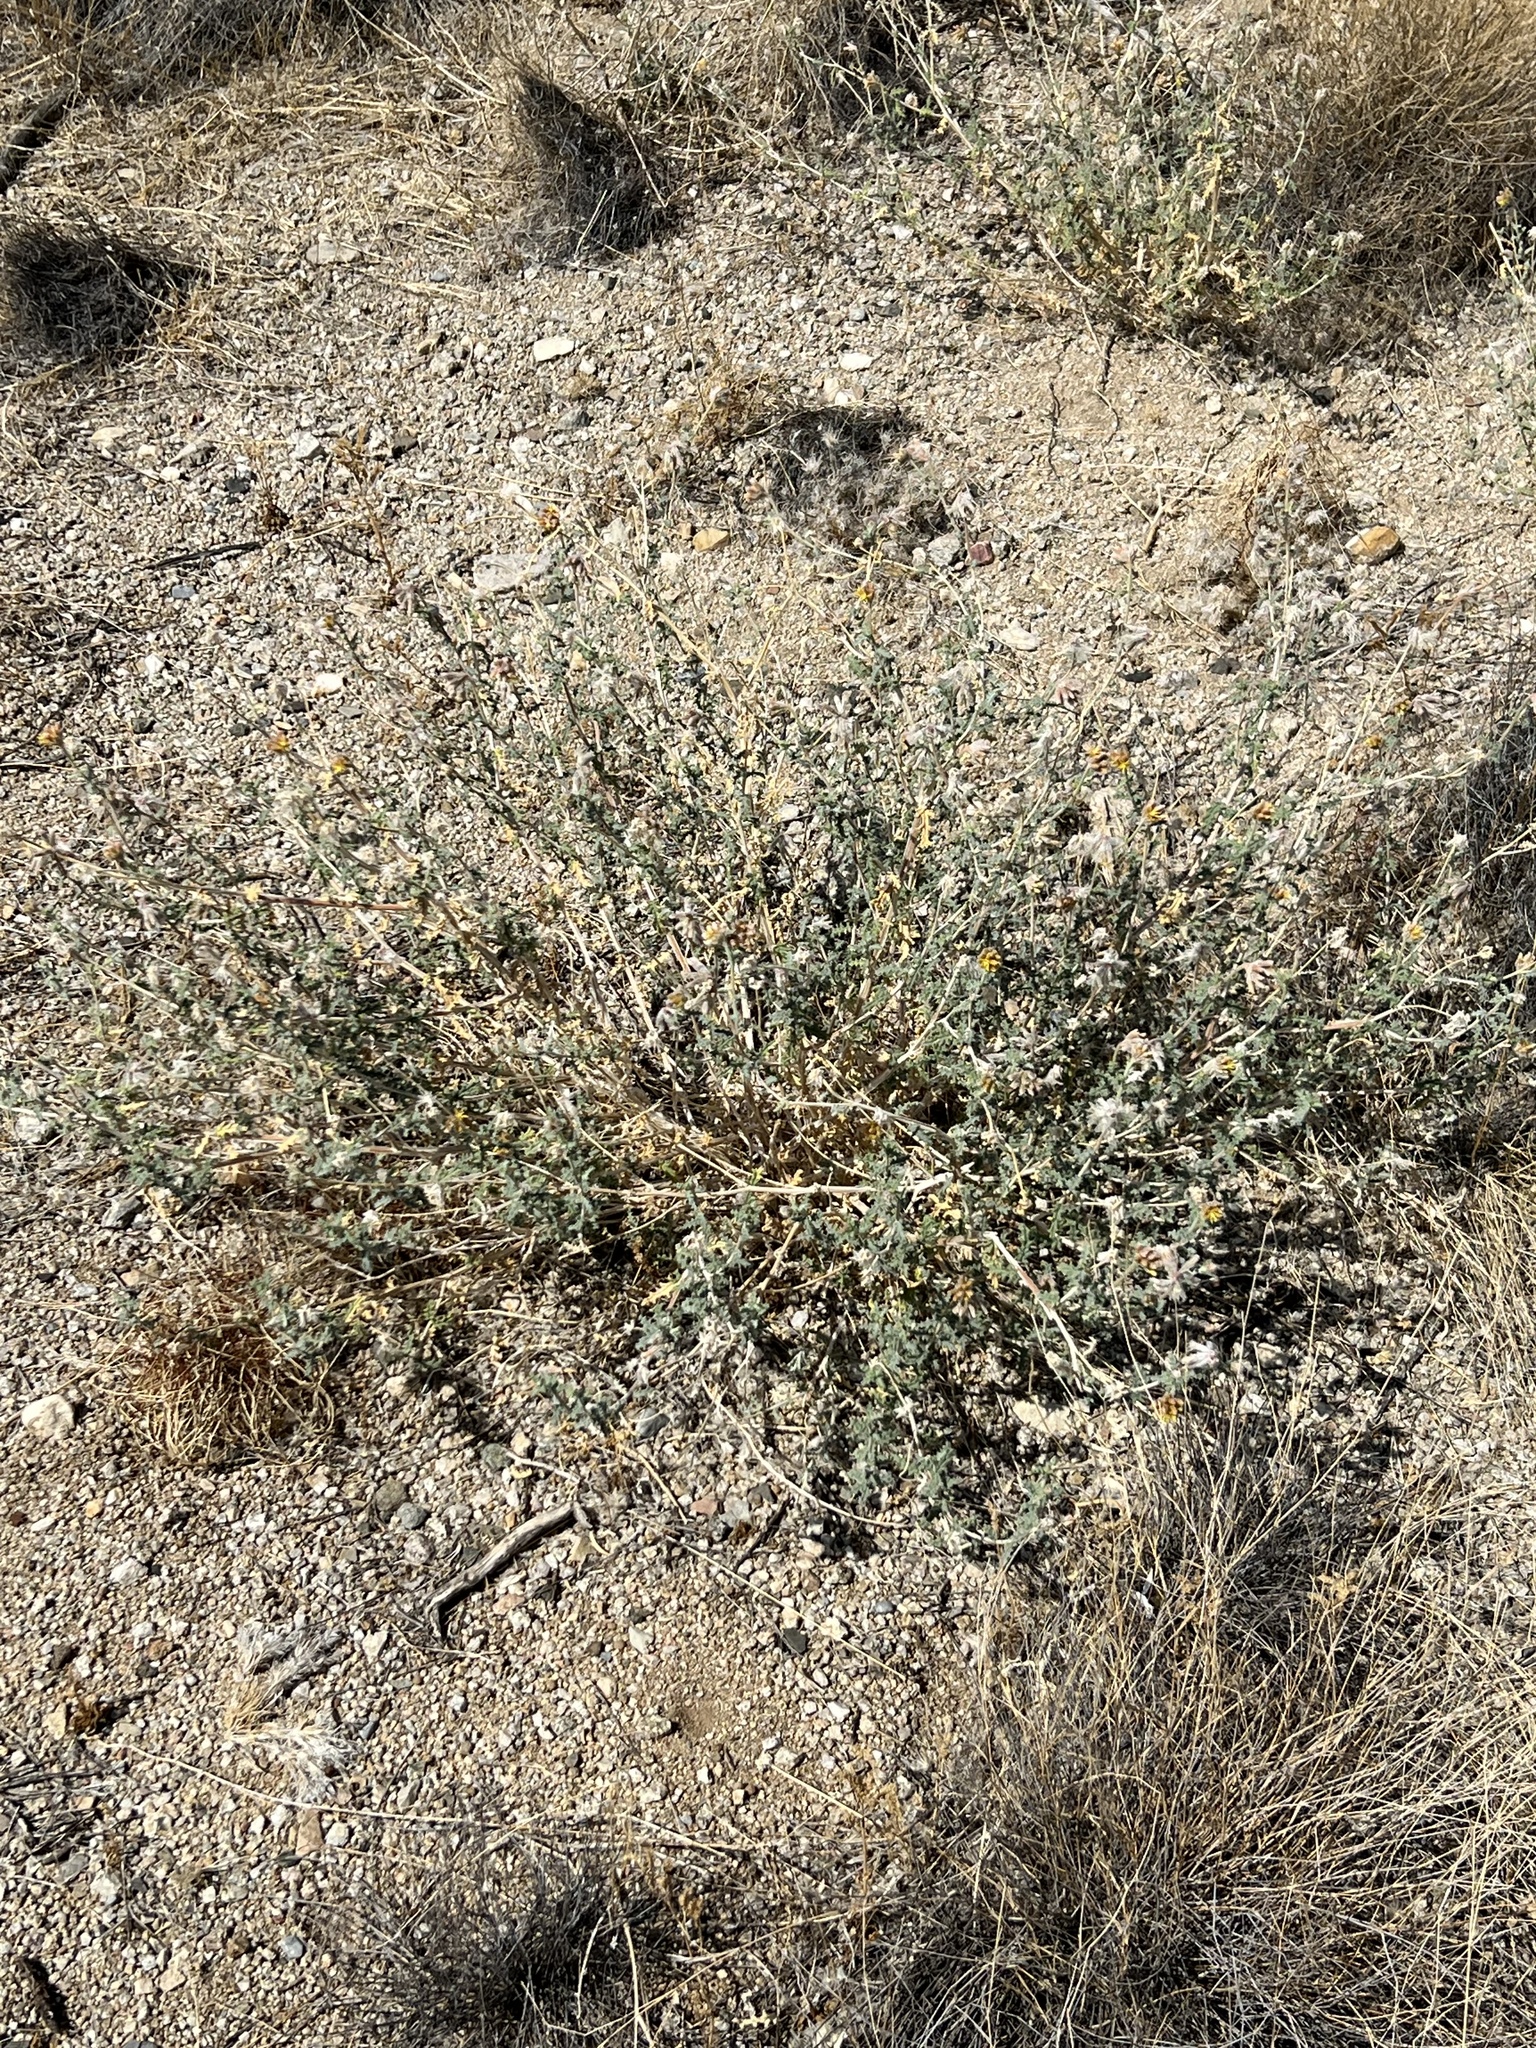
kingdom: Plantae
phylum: Tracheophyta
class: Magnoliopsida
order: Cornales
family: Loasaceae
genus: Cevallia
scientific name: Cevallia sinuata
